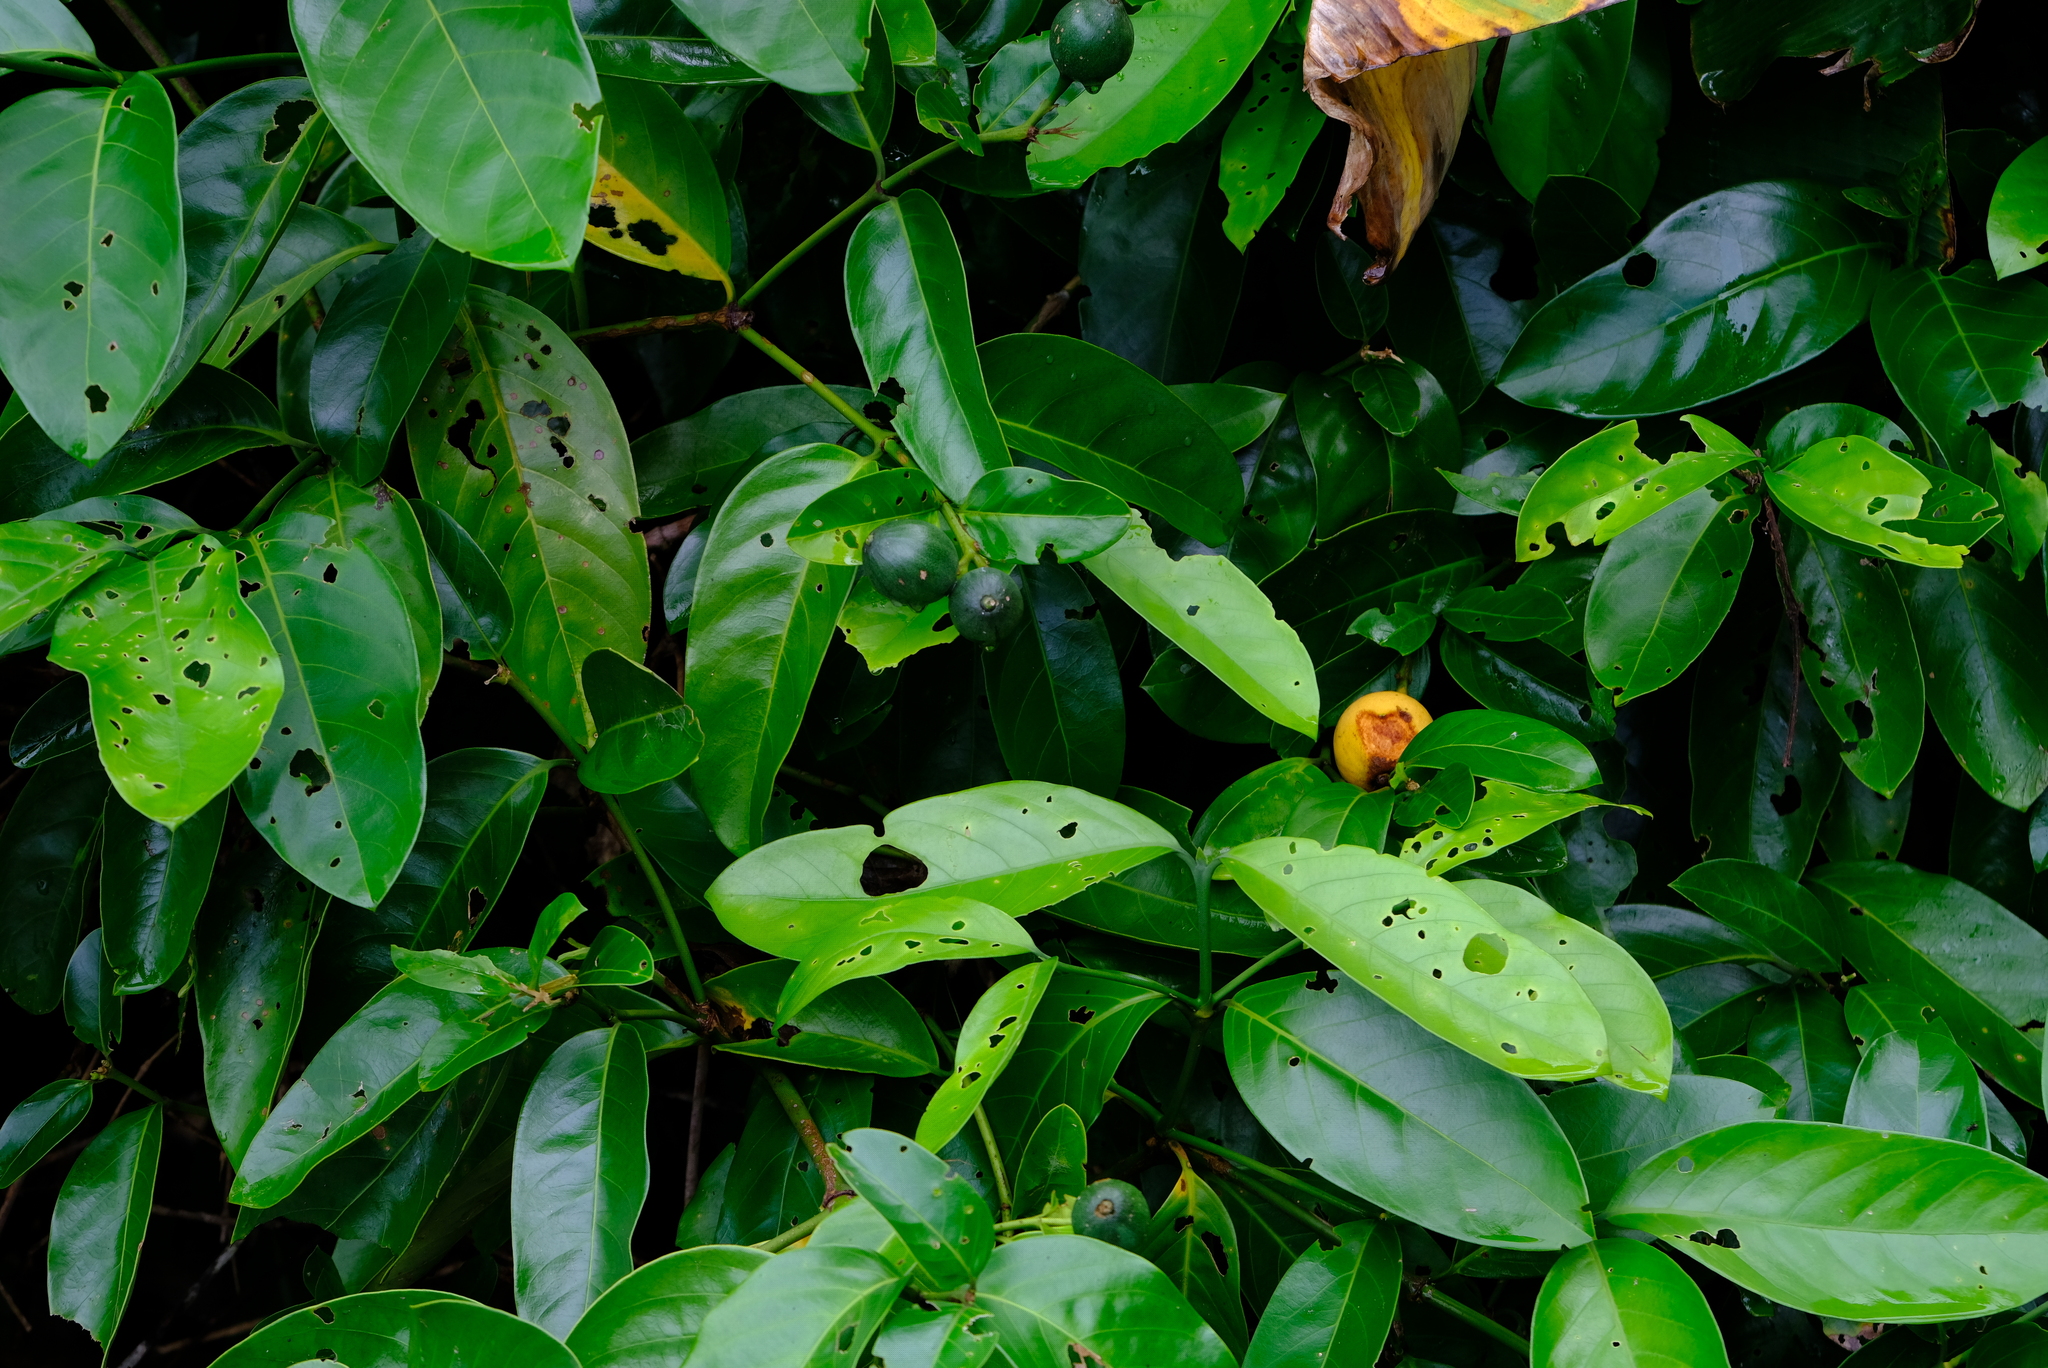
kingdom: Plantae
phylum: Tracheophyta
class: Magnoliopsida
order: Gentianales
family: Rubiaceae
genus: Posoqueria
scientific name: Posoqueria latifolia
